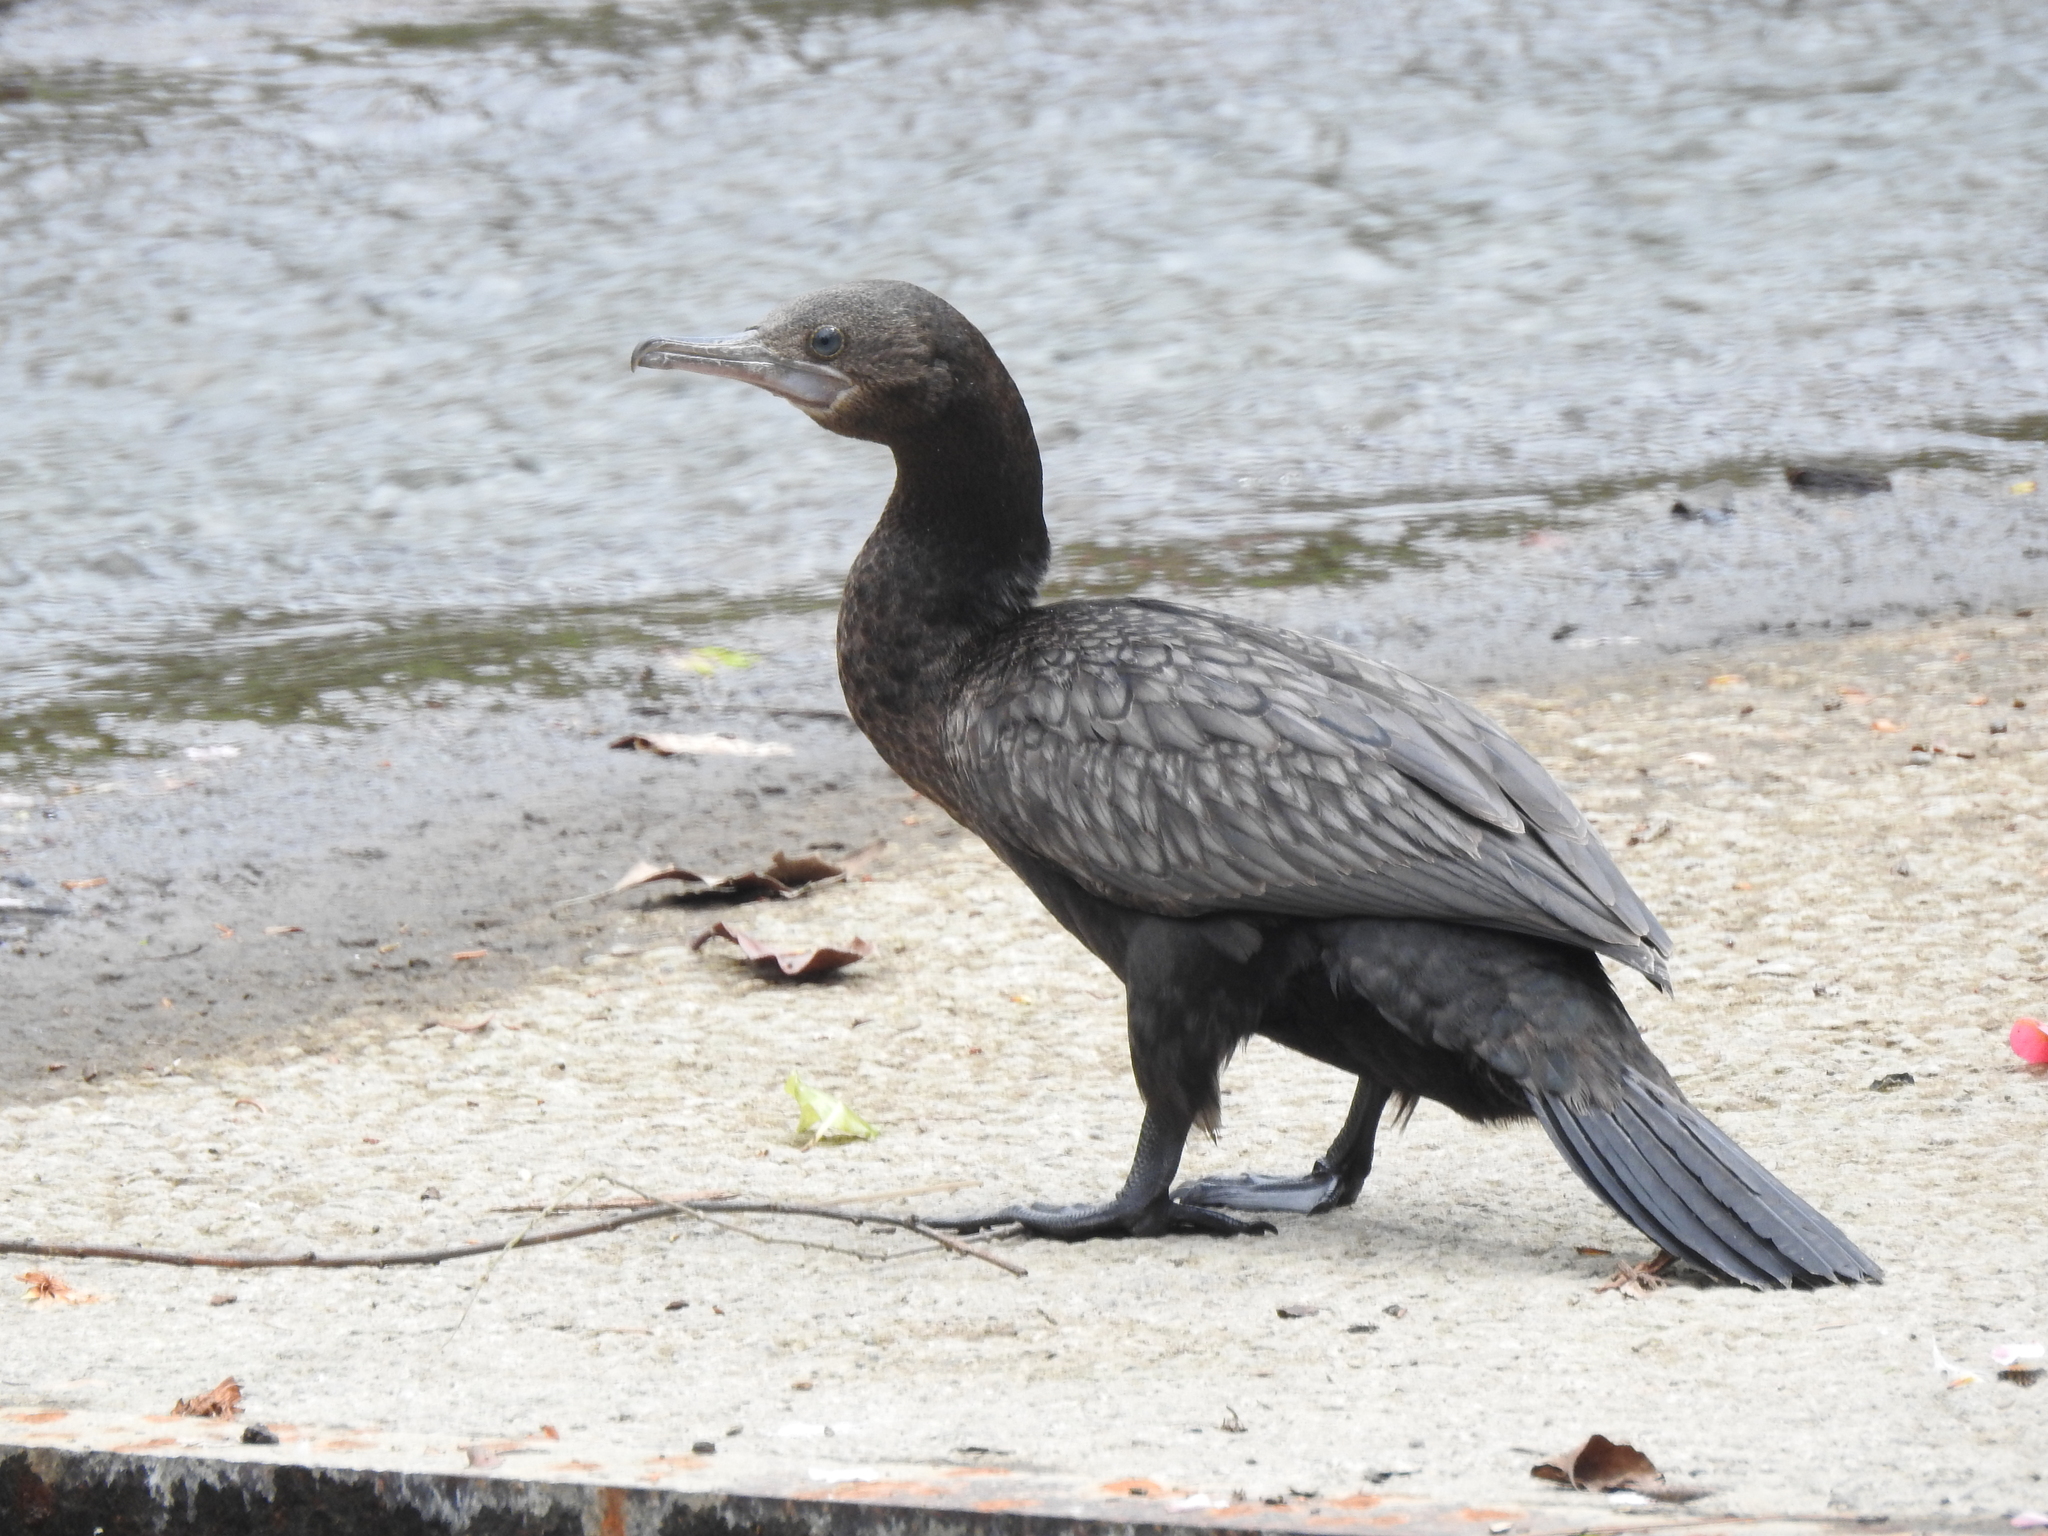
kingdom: Animalia
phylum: Chordata
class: Aves
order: Suliformes
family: Phalacrocoracidae
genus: Phalacrocorax
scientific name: Phalacrocorax sulcirostris
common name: Little black cormorant
